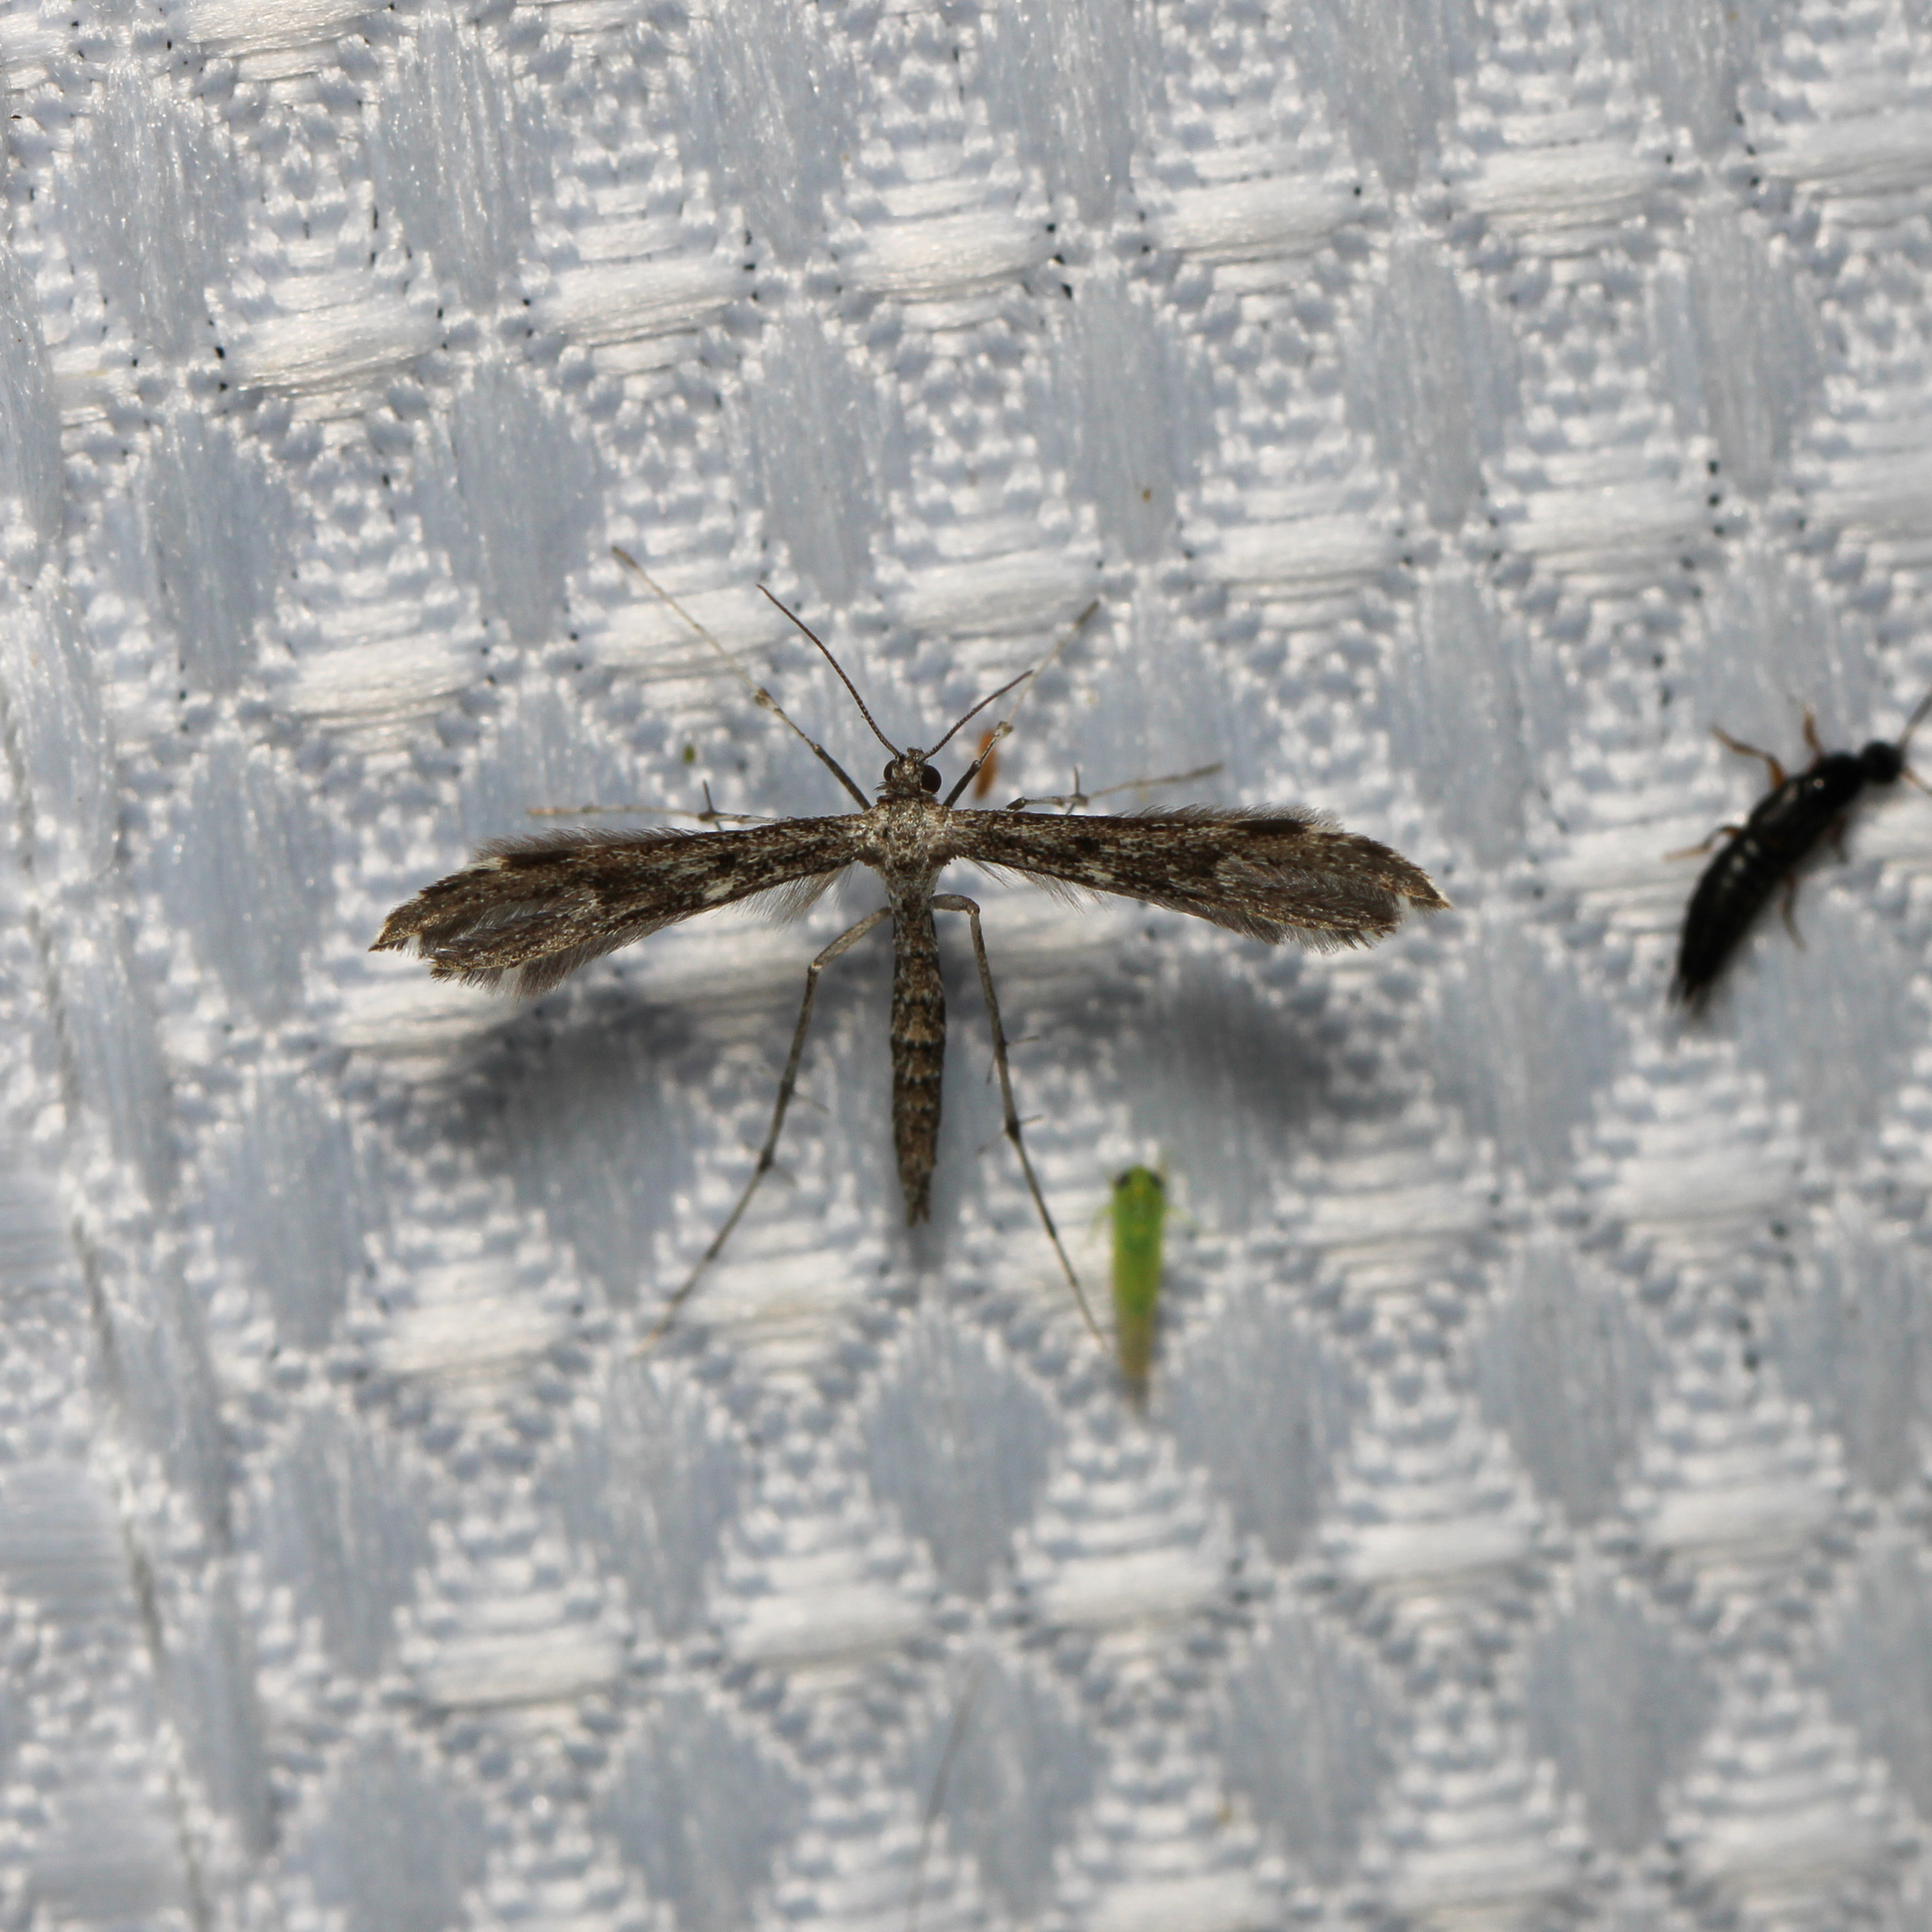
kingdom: Animalia
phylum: Arthropoda
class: Insecta
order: Lepidoptera
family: Pterophoridae
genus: Hellinsia
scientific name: Hellinsia inquinatus
